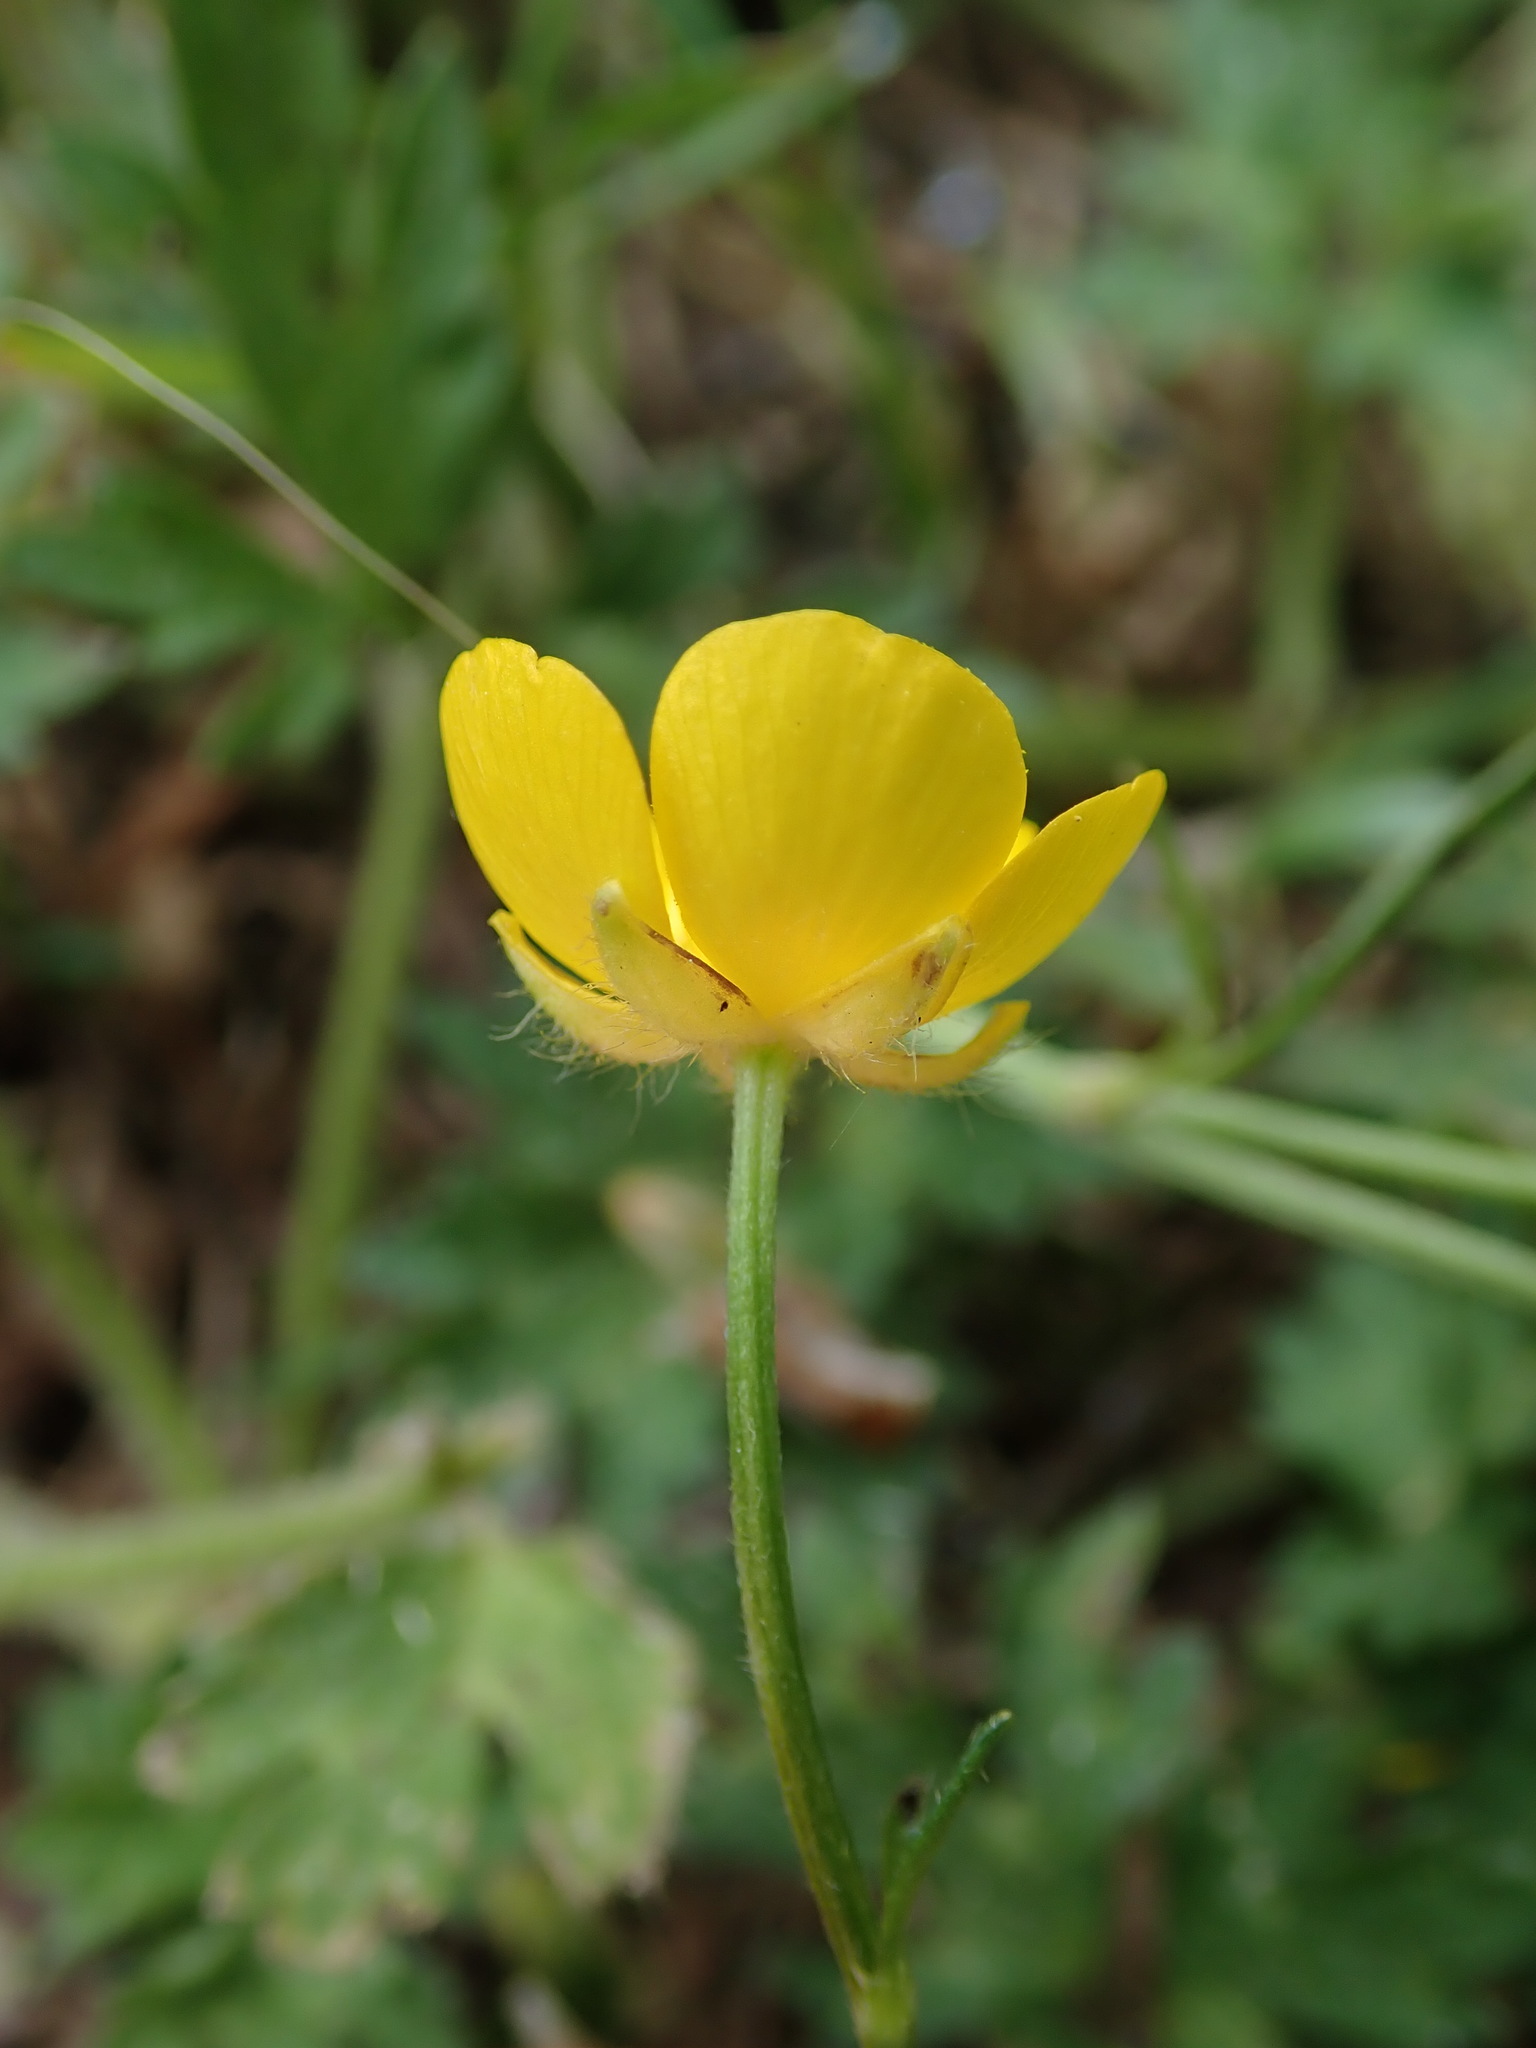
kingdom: Plantae
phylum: Tracheophyta
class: Magnoliopsida
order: Ranunculales
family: Ranunculaceae
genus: Ranunculus
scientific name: Ranunculus repens
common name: Creeping buttercup
